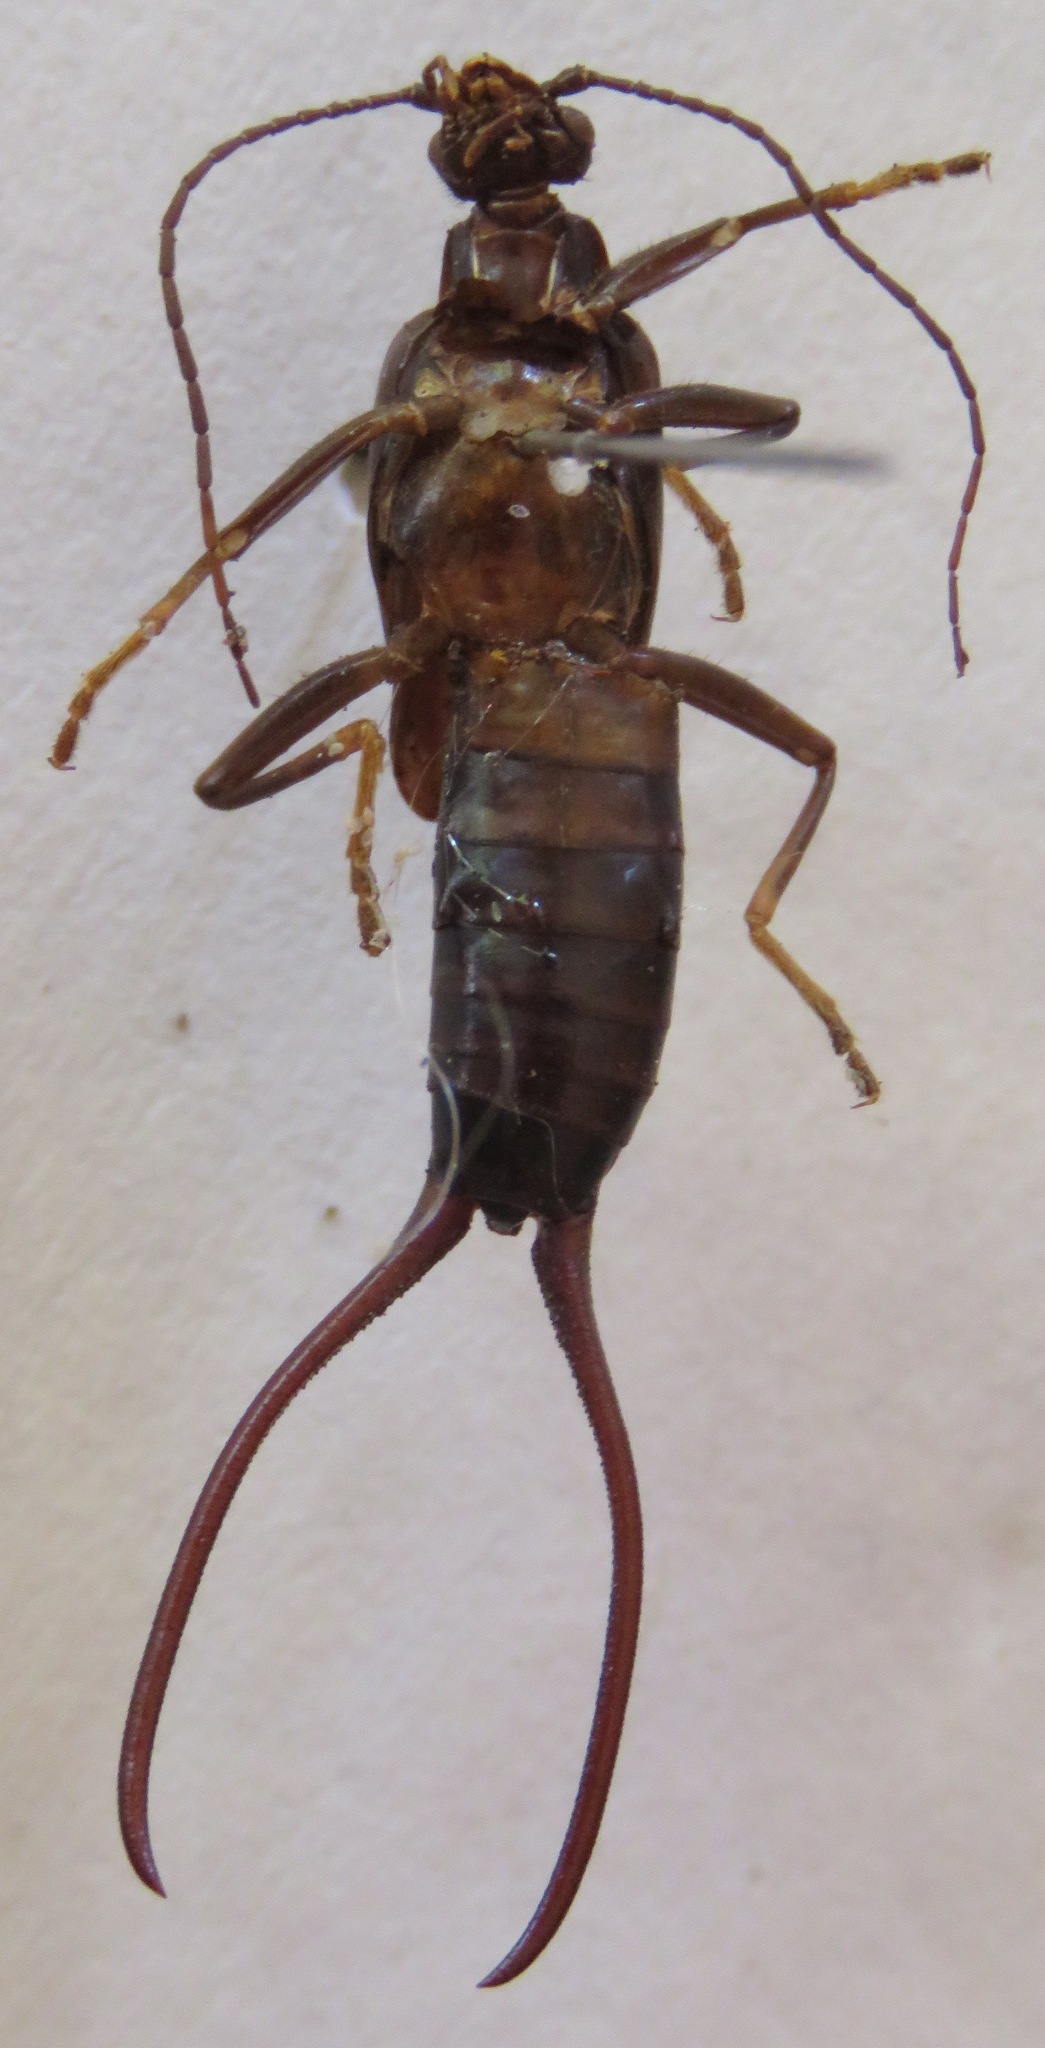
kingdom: Animalia
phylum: Arthropoda
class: Insecta
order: Dermaptera
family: Spongiphoridae
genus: Spongiphora
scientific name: Spongiphora croceipennis
